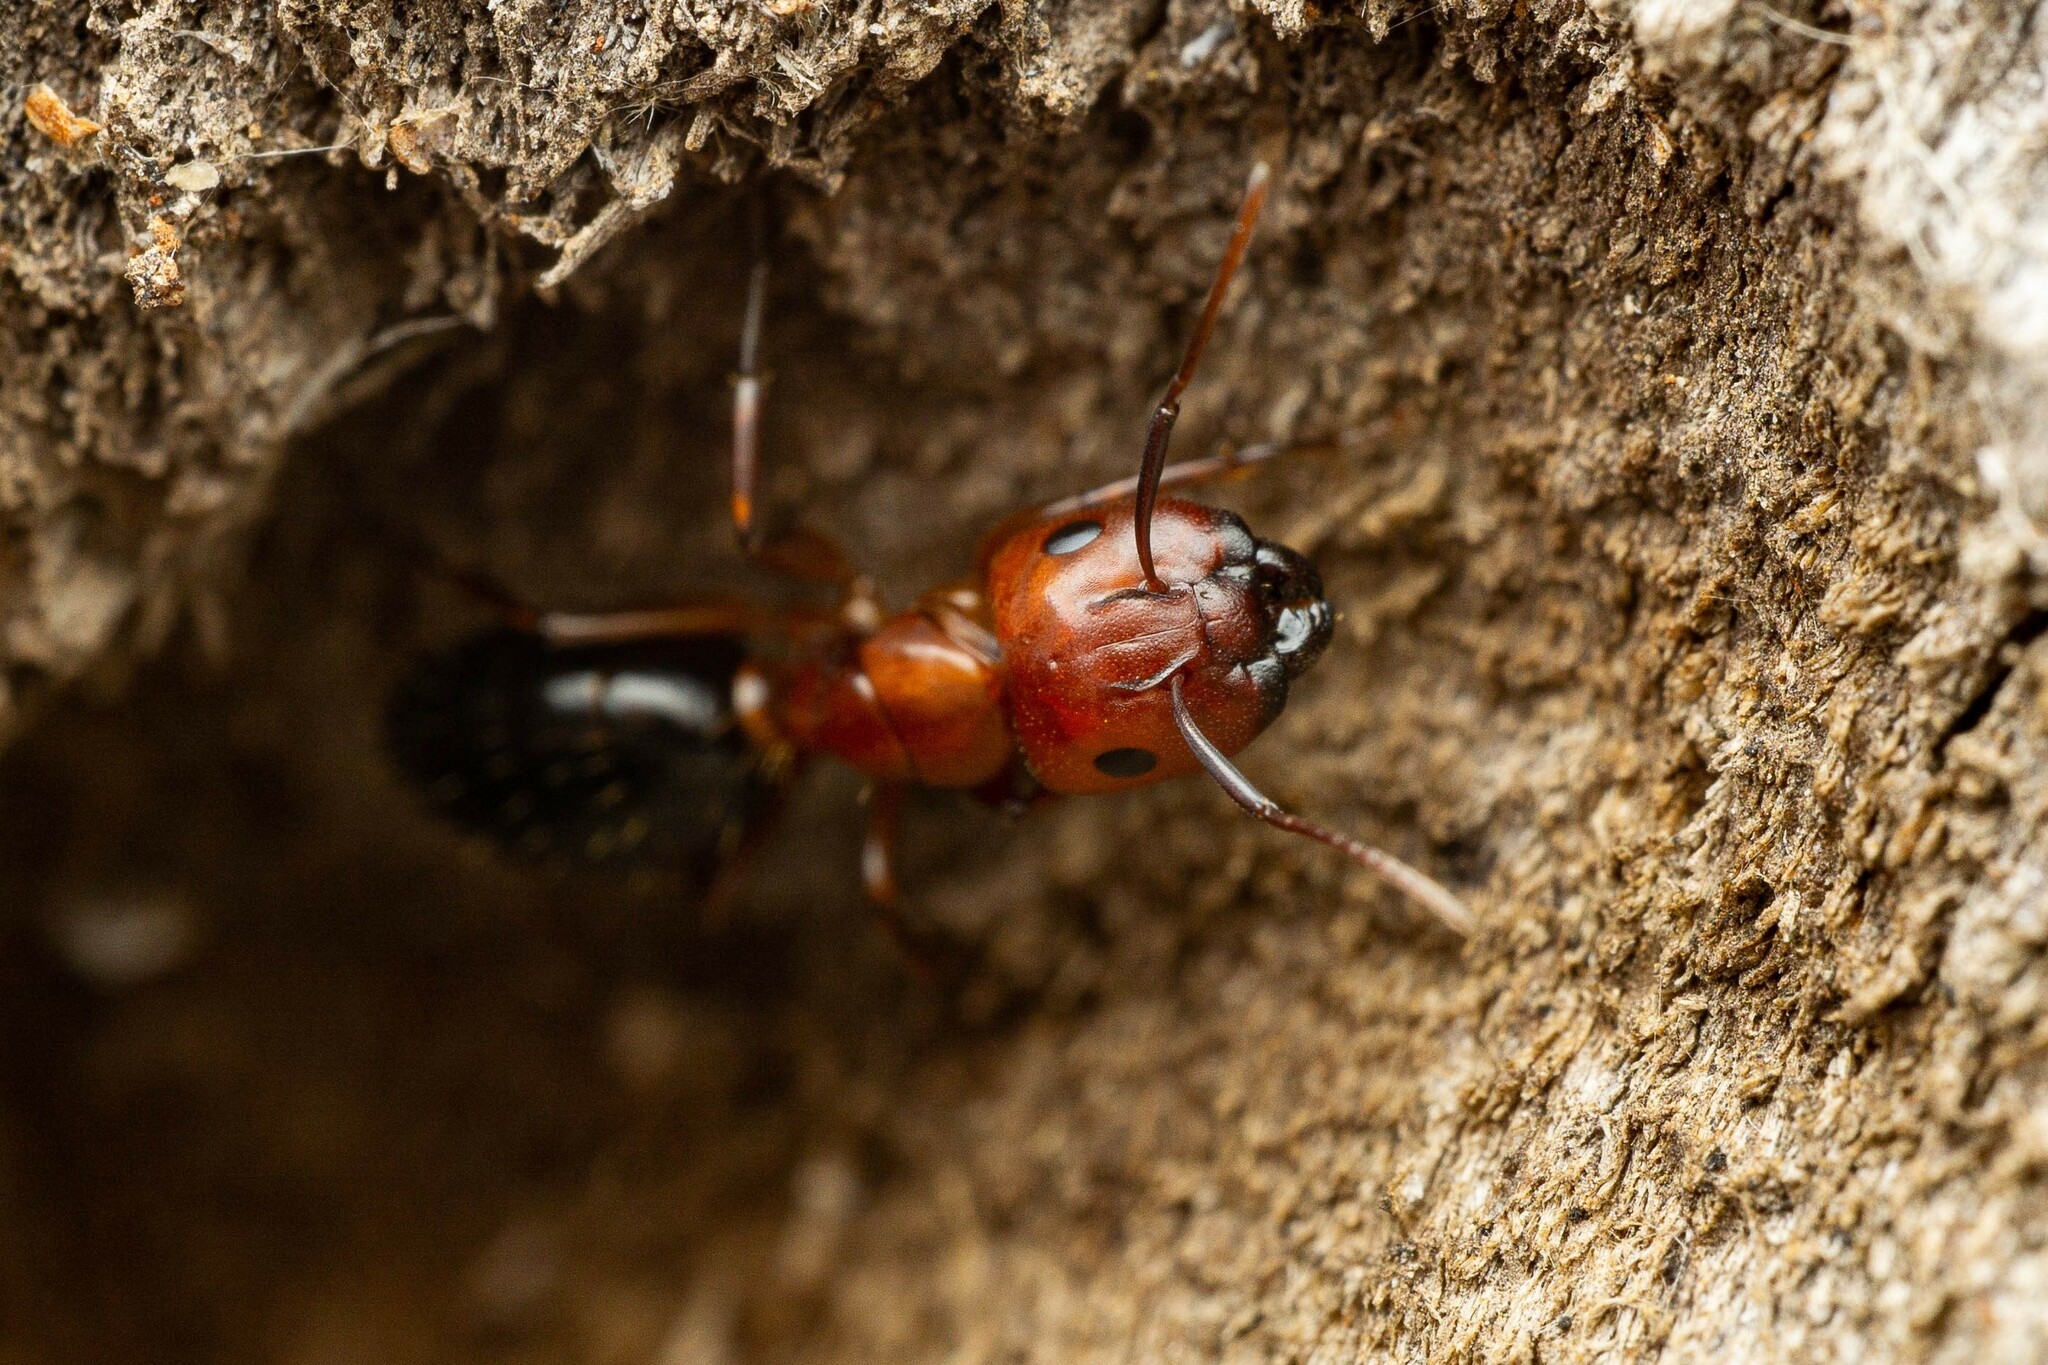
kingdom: Animalia
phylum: Arthropoda
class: Insecta
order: Hymenoptera
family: Formicidae
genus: Camponotus
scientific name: Camponotus sayi
